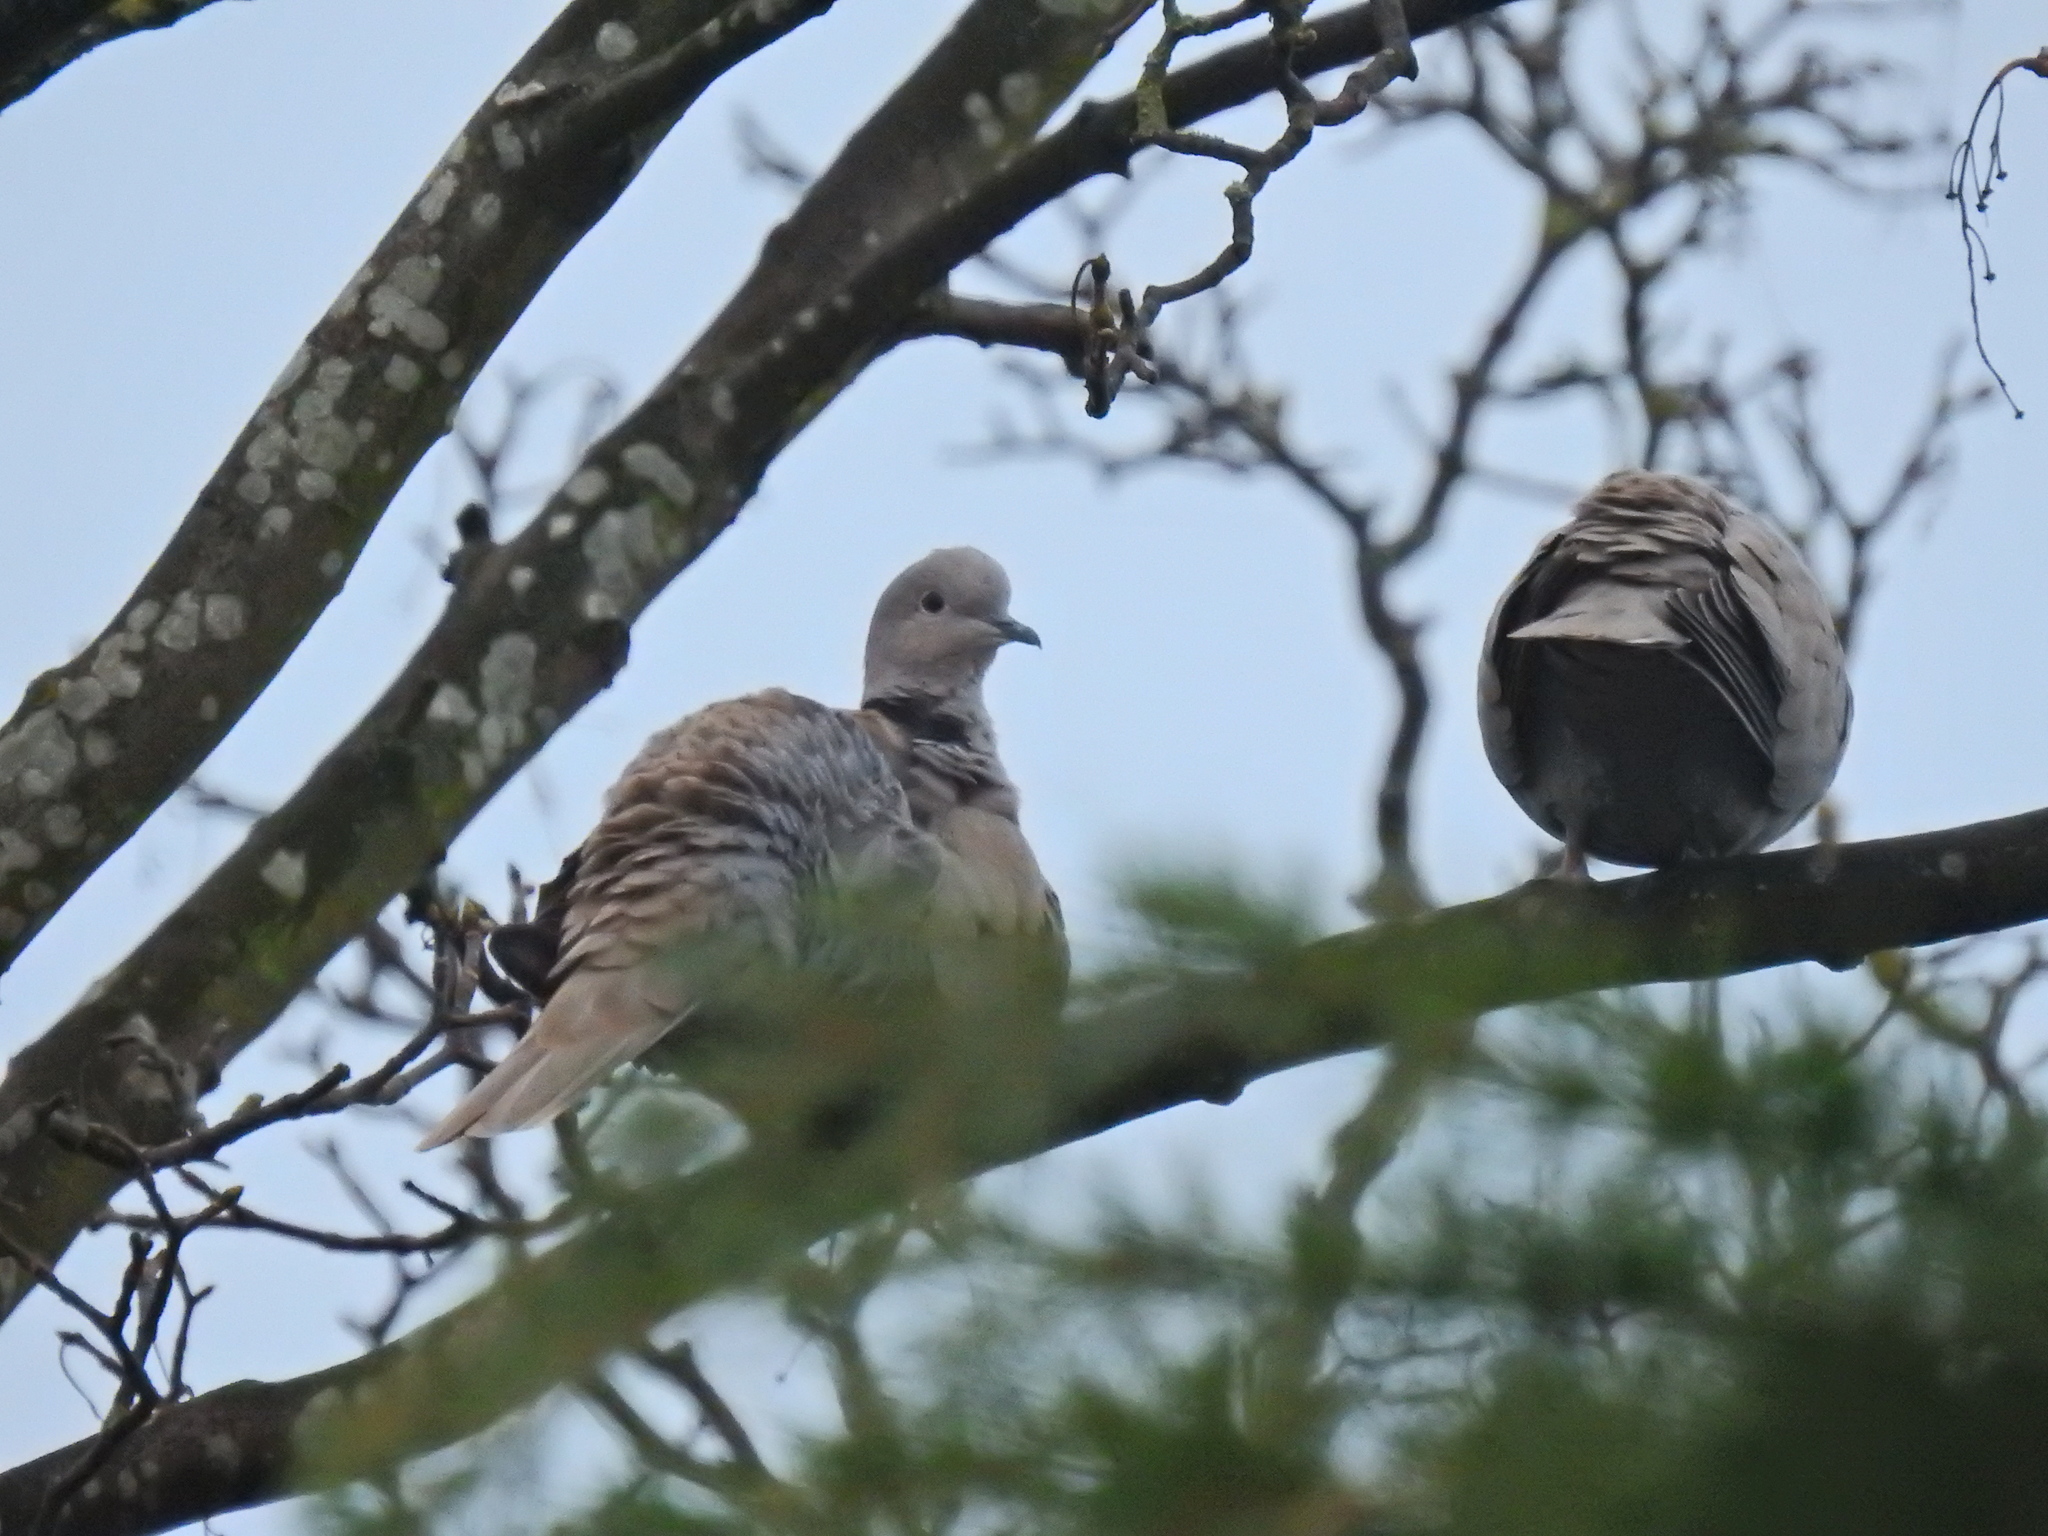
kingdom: Animalia
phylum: Chordata
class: Aves
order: Columbiformes
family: Columbidae
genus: Streptopelia
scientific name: Streptopelia decaocto
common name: Eurasian collared dove
